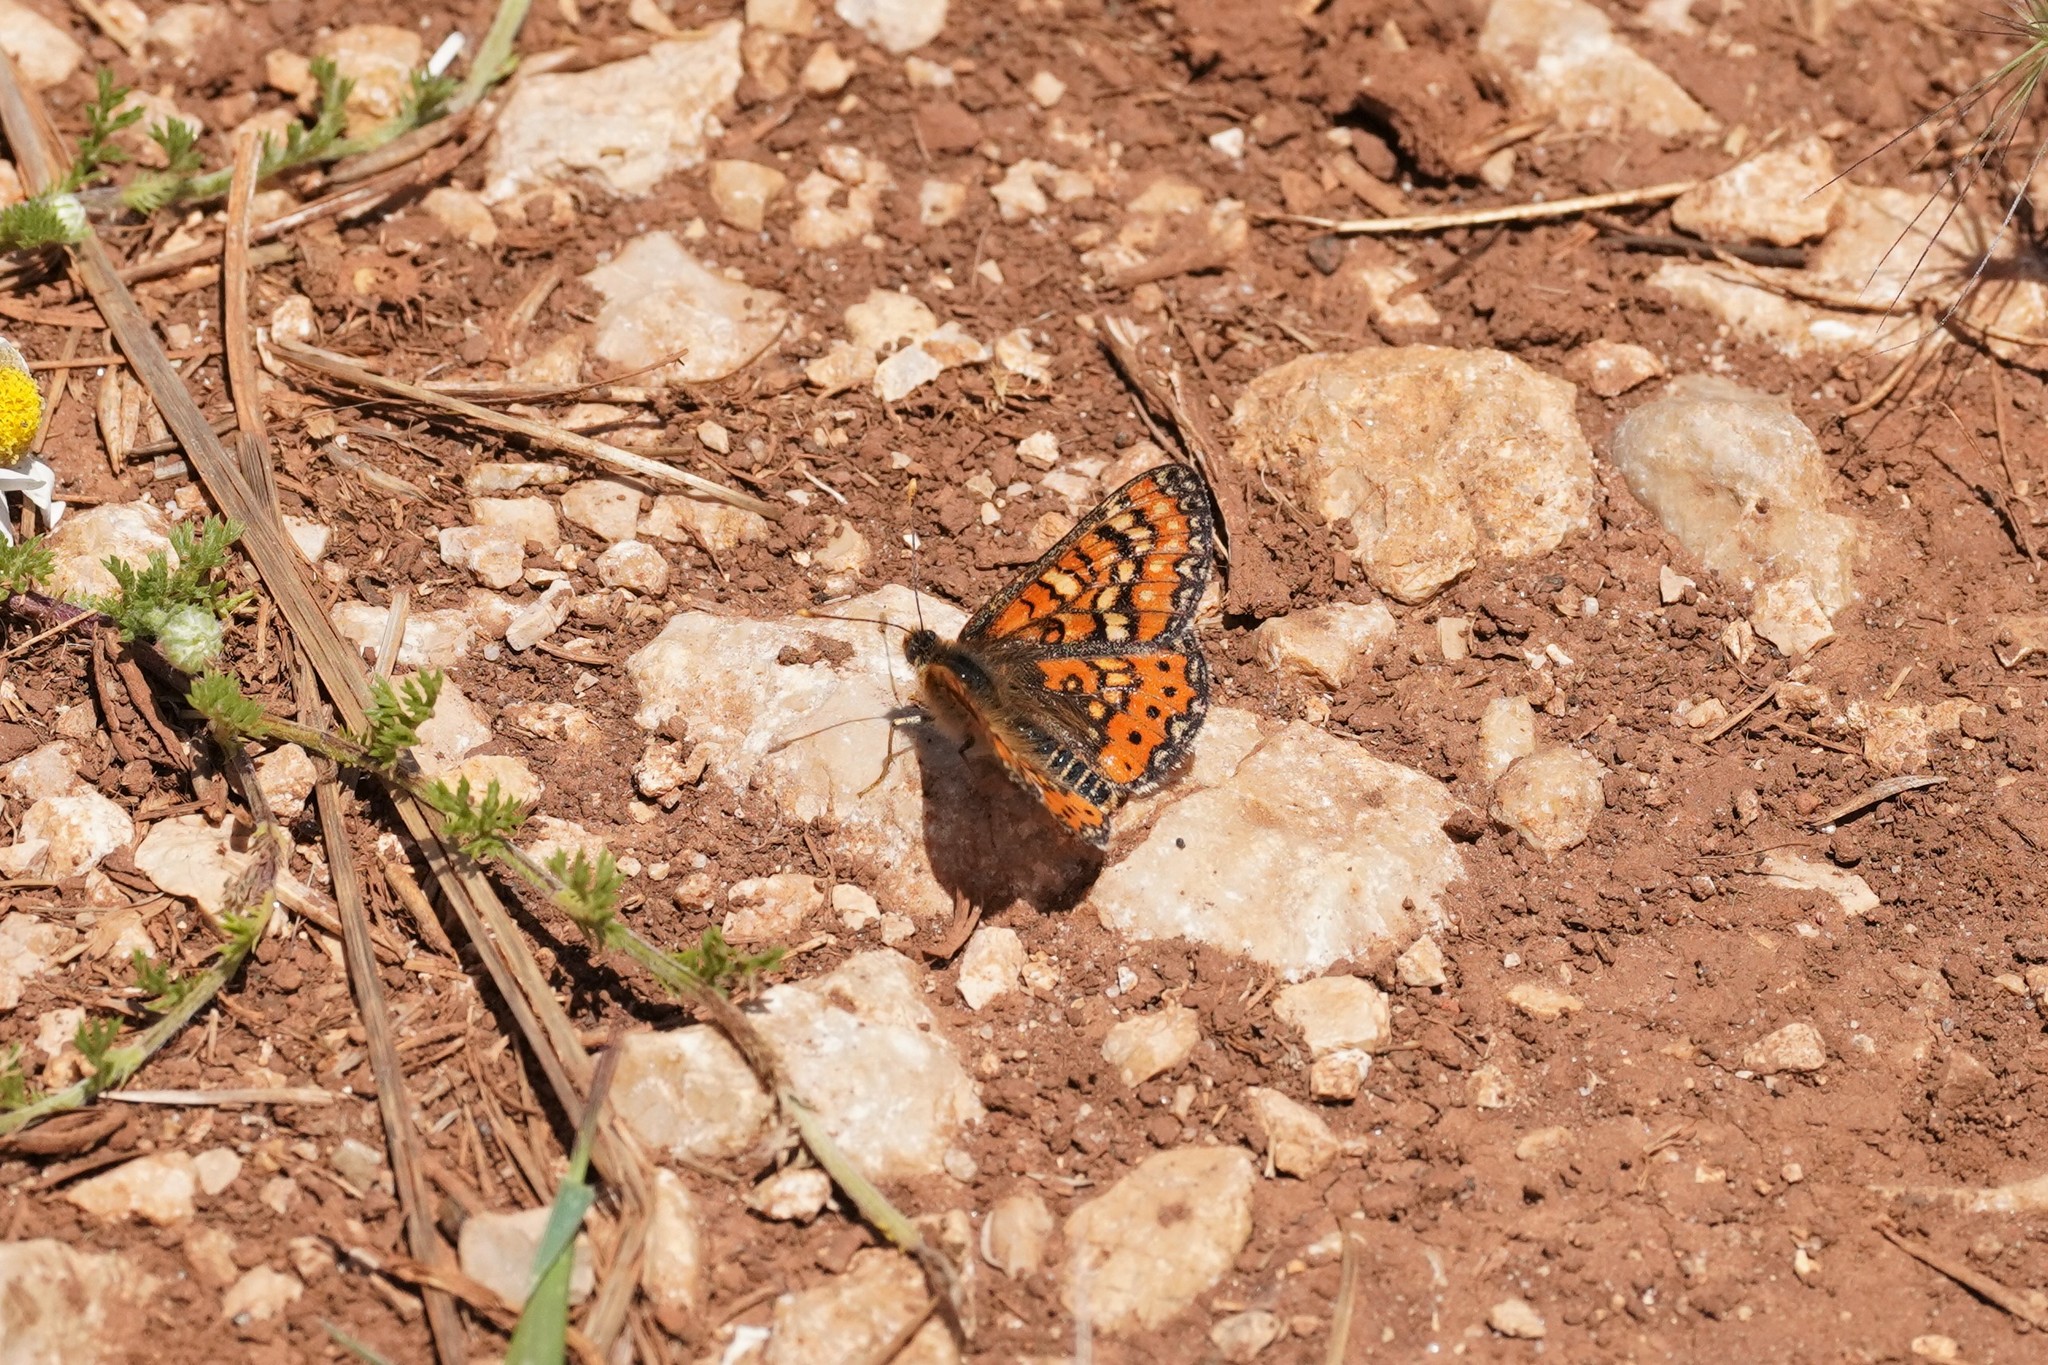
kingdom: Animalia
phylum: Arthropoda
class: Insecta
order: Lepidoptera
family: Nymphalidae
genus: Euphydryas
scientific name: Euphydryas desfontainii
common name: Spanish fritillary
